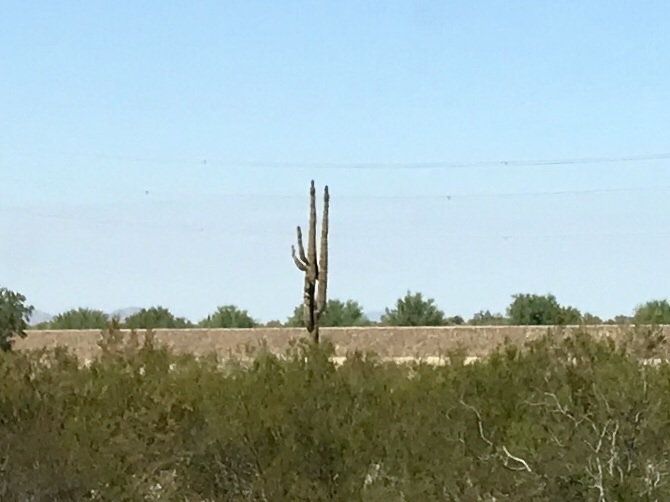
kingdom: Plantae
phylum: Tracheophyta
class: Magnoliopsida
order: Caryophyllales
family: Cactaceae
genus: Carnegiea
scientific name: Carnegiea gigantea
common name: Saguaro
